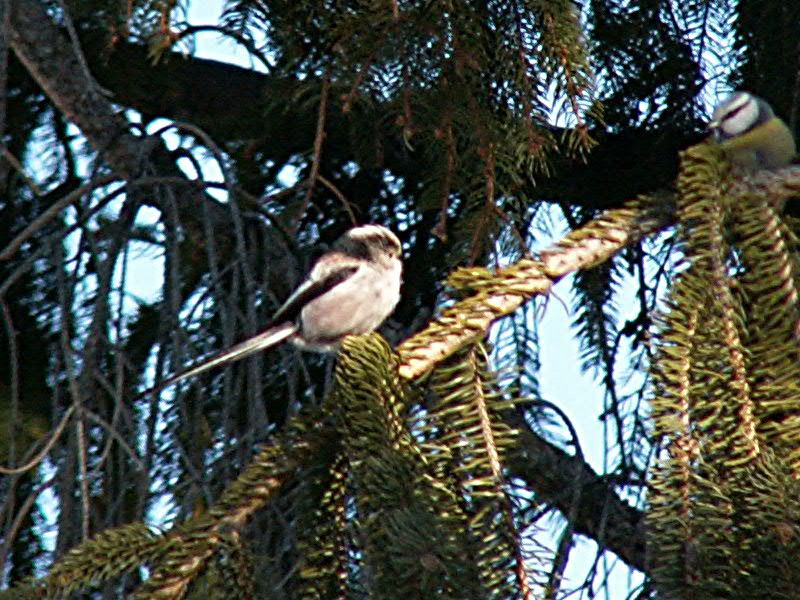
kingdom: Animalia
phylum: Chordata
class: Aves
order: Passeriformes
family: Aegithalidae
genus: Aegithalos
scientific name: Aegithalos caudatus
